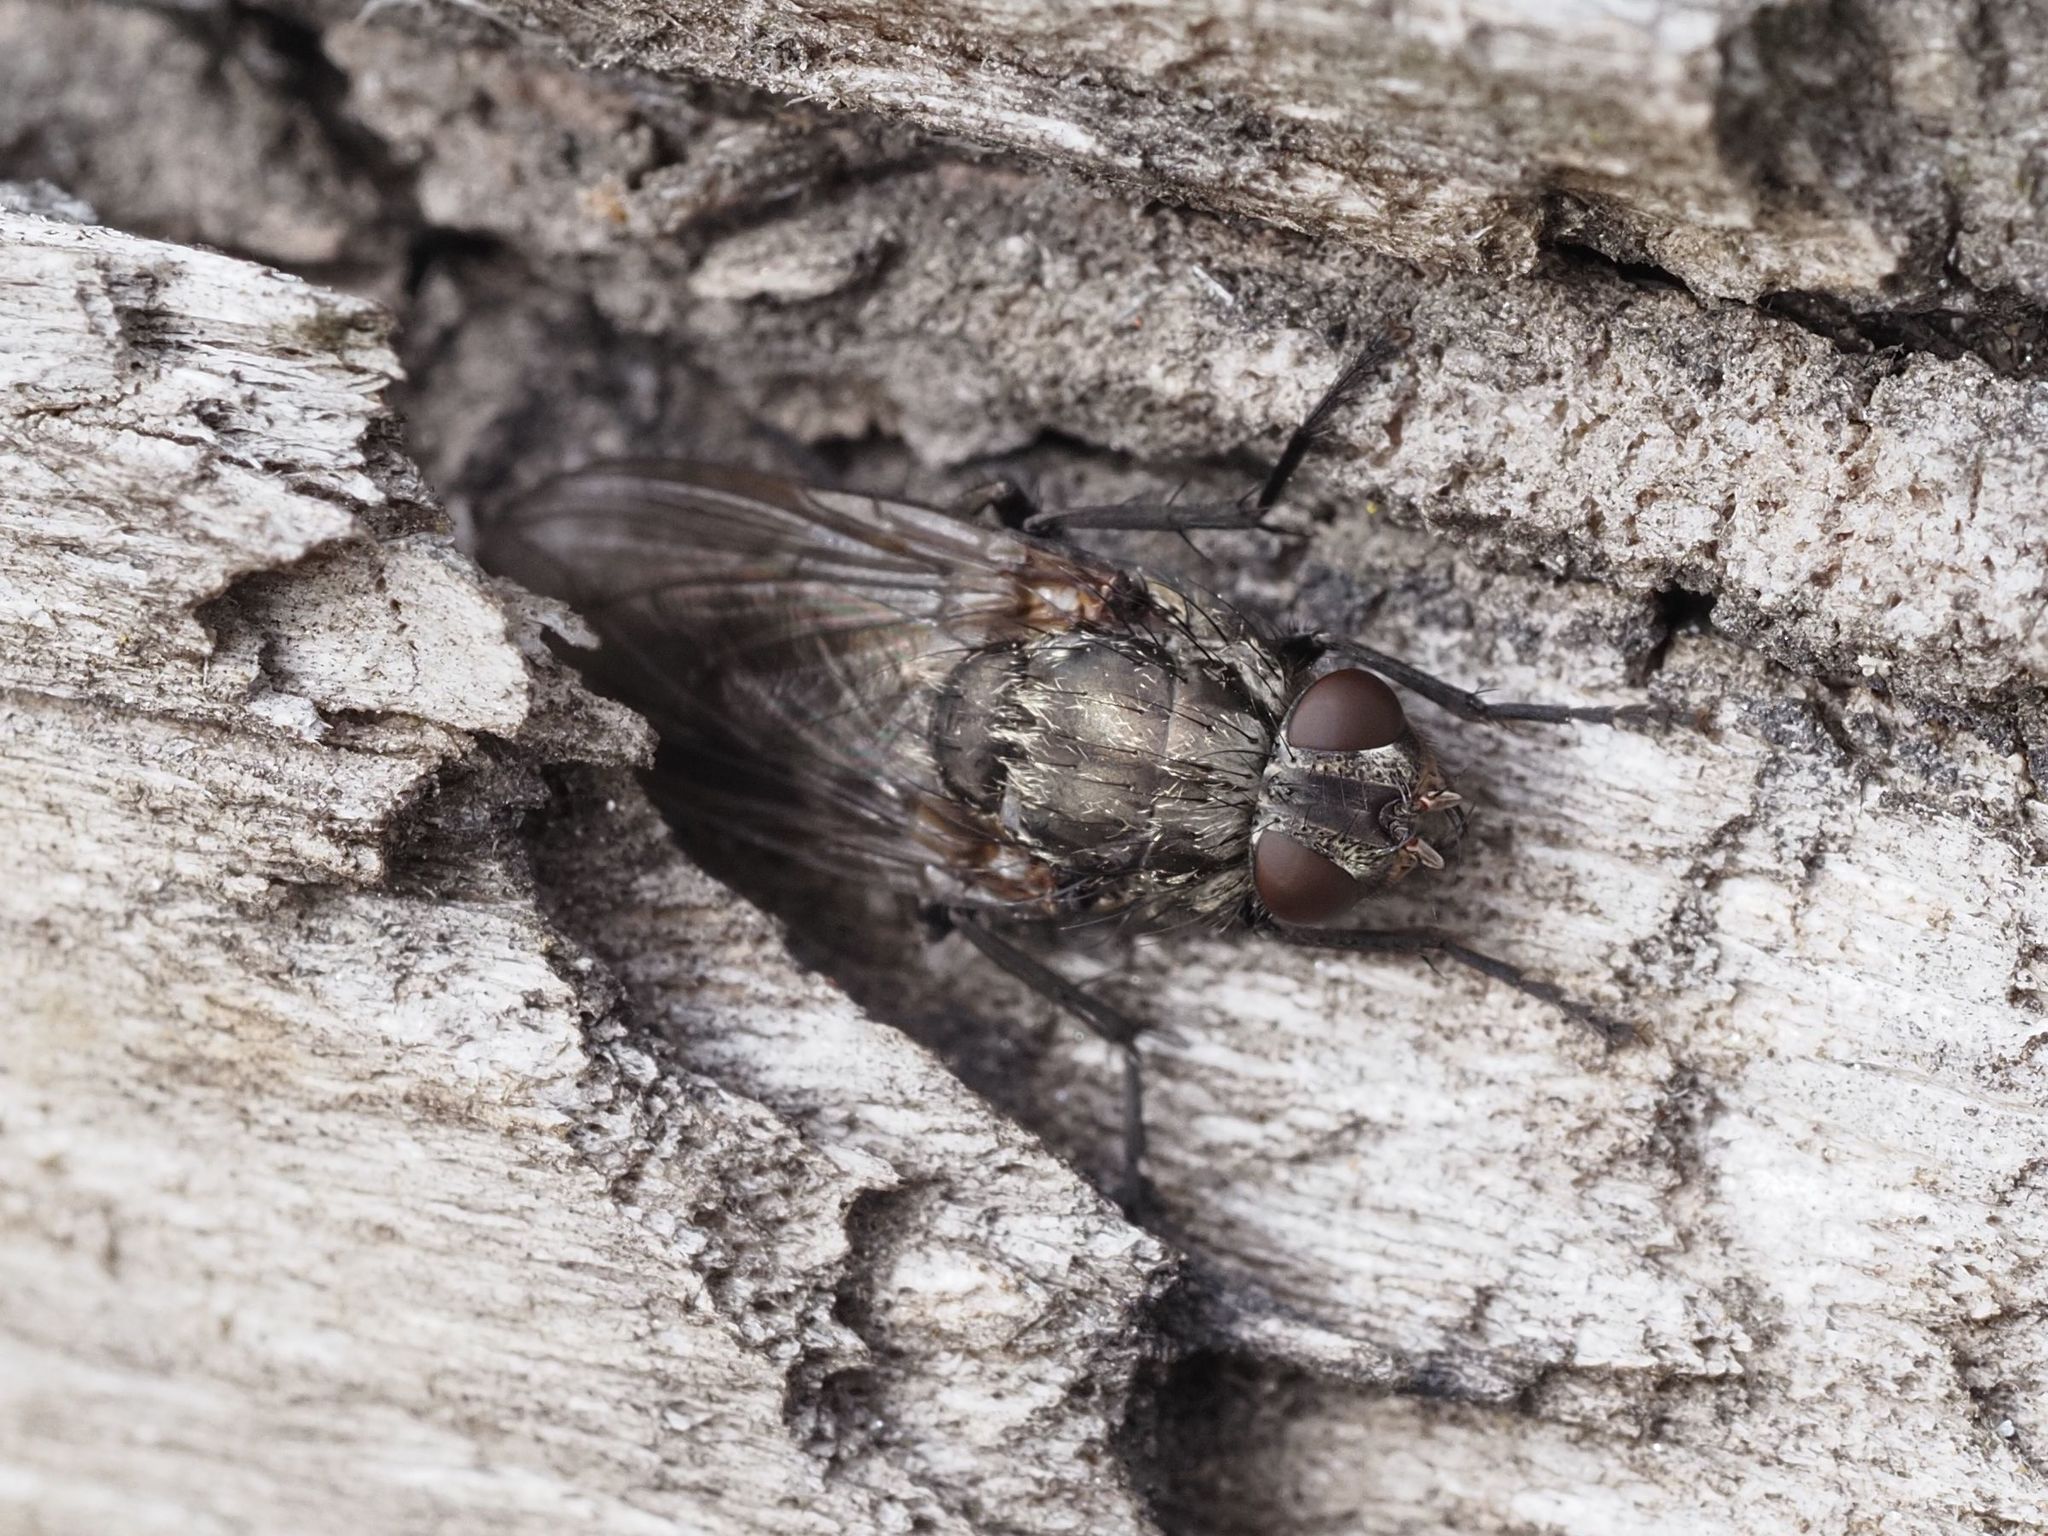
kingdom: Animalia
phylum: Arthropoda
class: Insecta
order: Diptera
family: Polleniidae
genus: Pollenia
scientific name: Pollenia vagabunda
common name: Vagabund cluster fly
